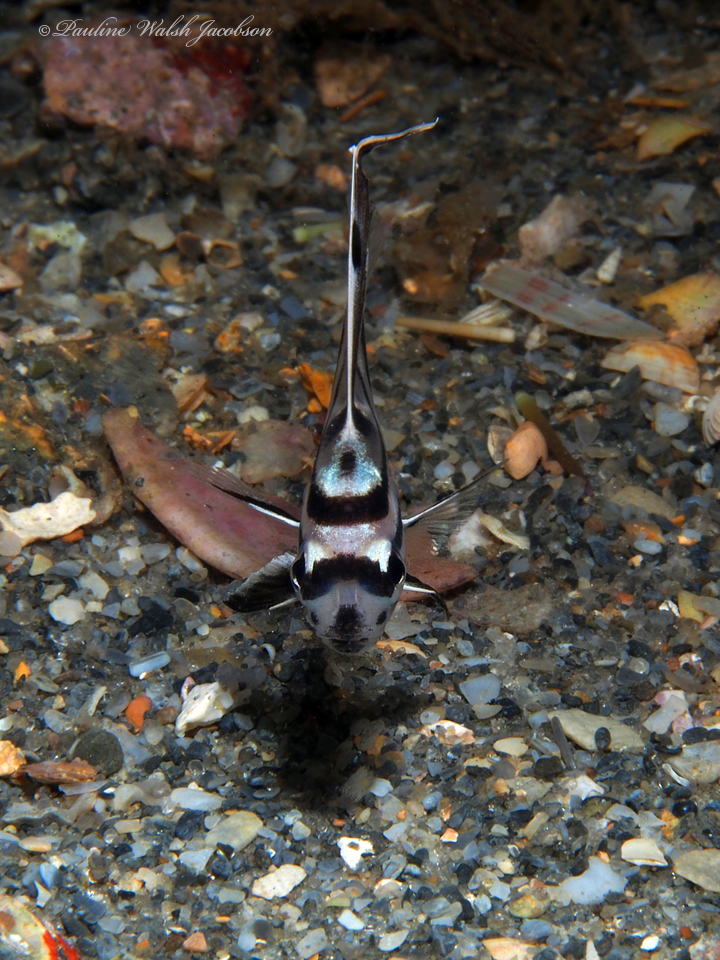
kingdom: Animalia
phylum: Chordata
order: Perciformes
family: Sciaenidae
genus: Pareques
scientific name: Pareques acuminatus
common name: High-hat
